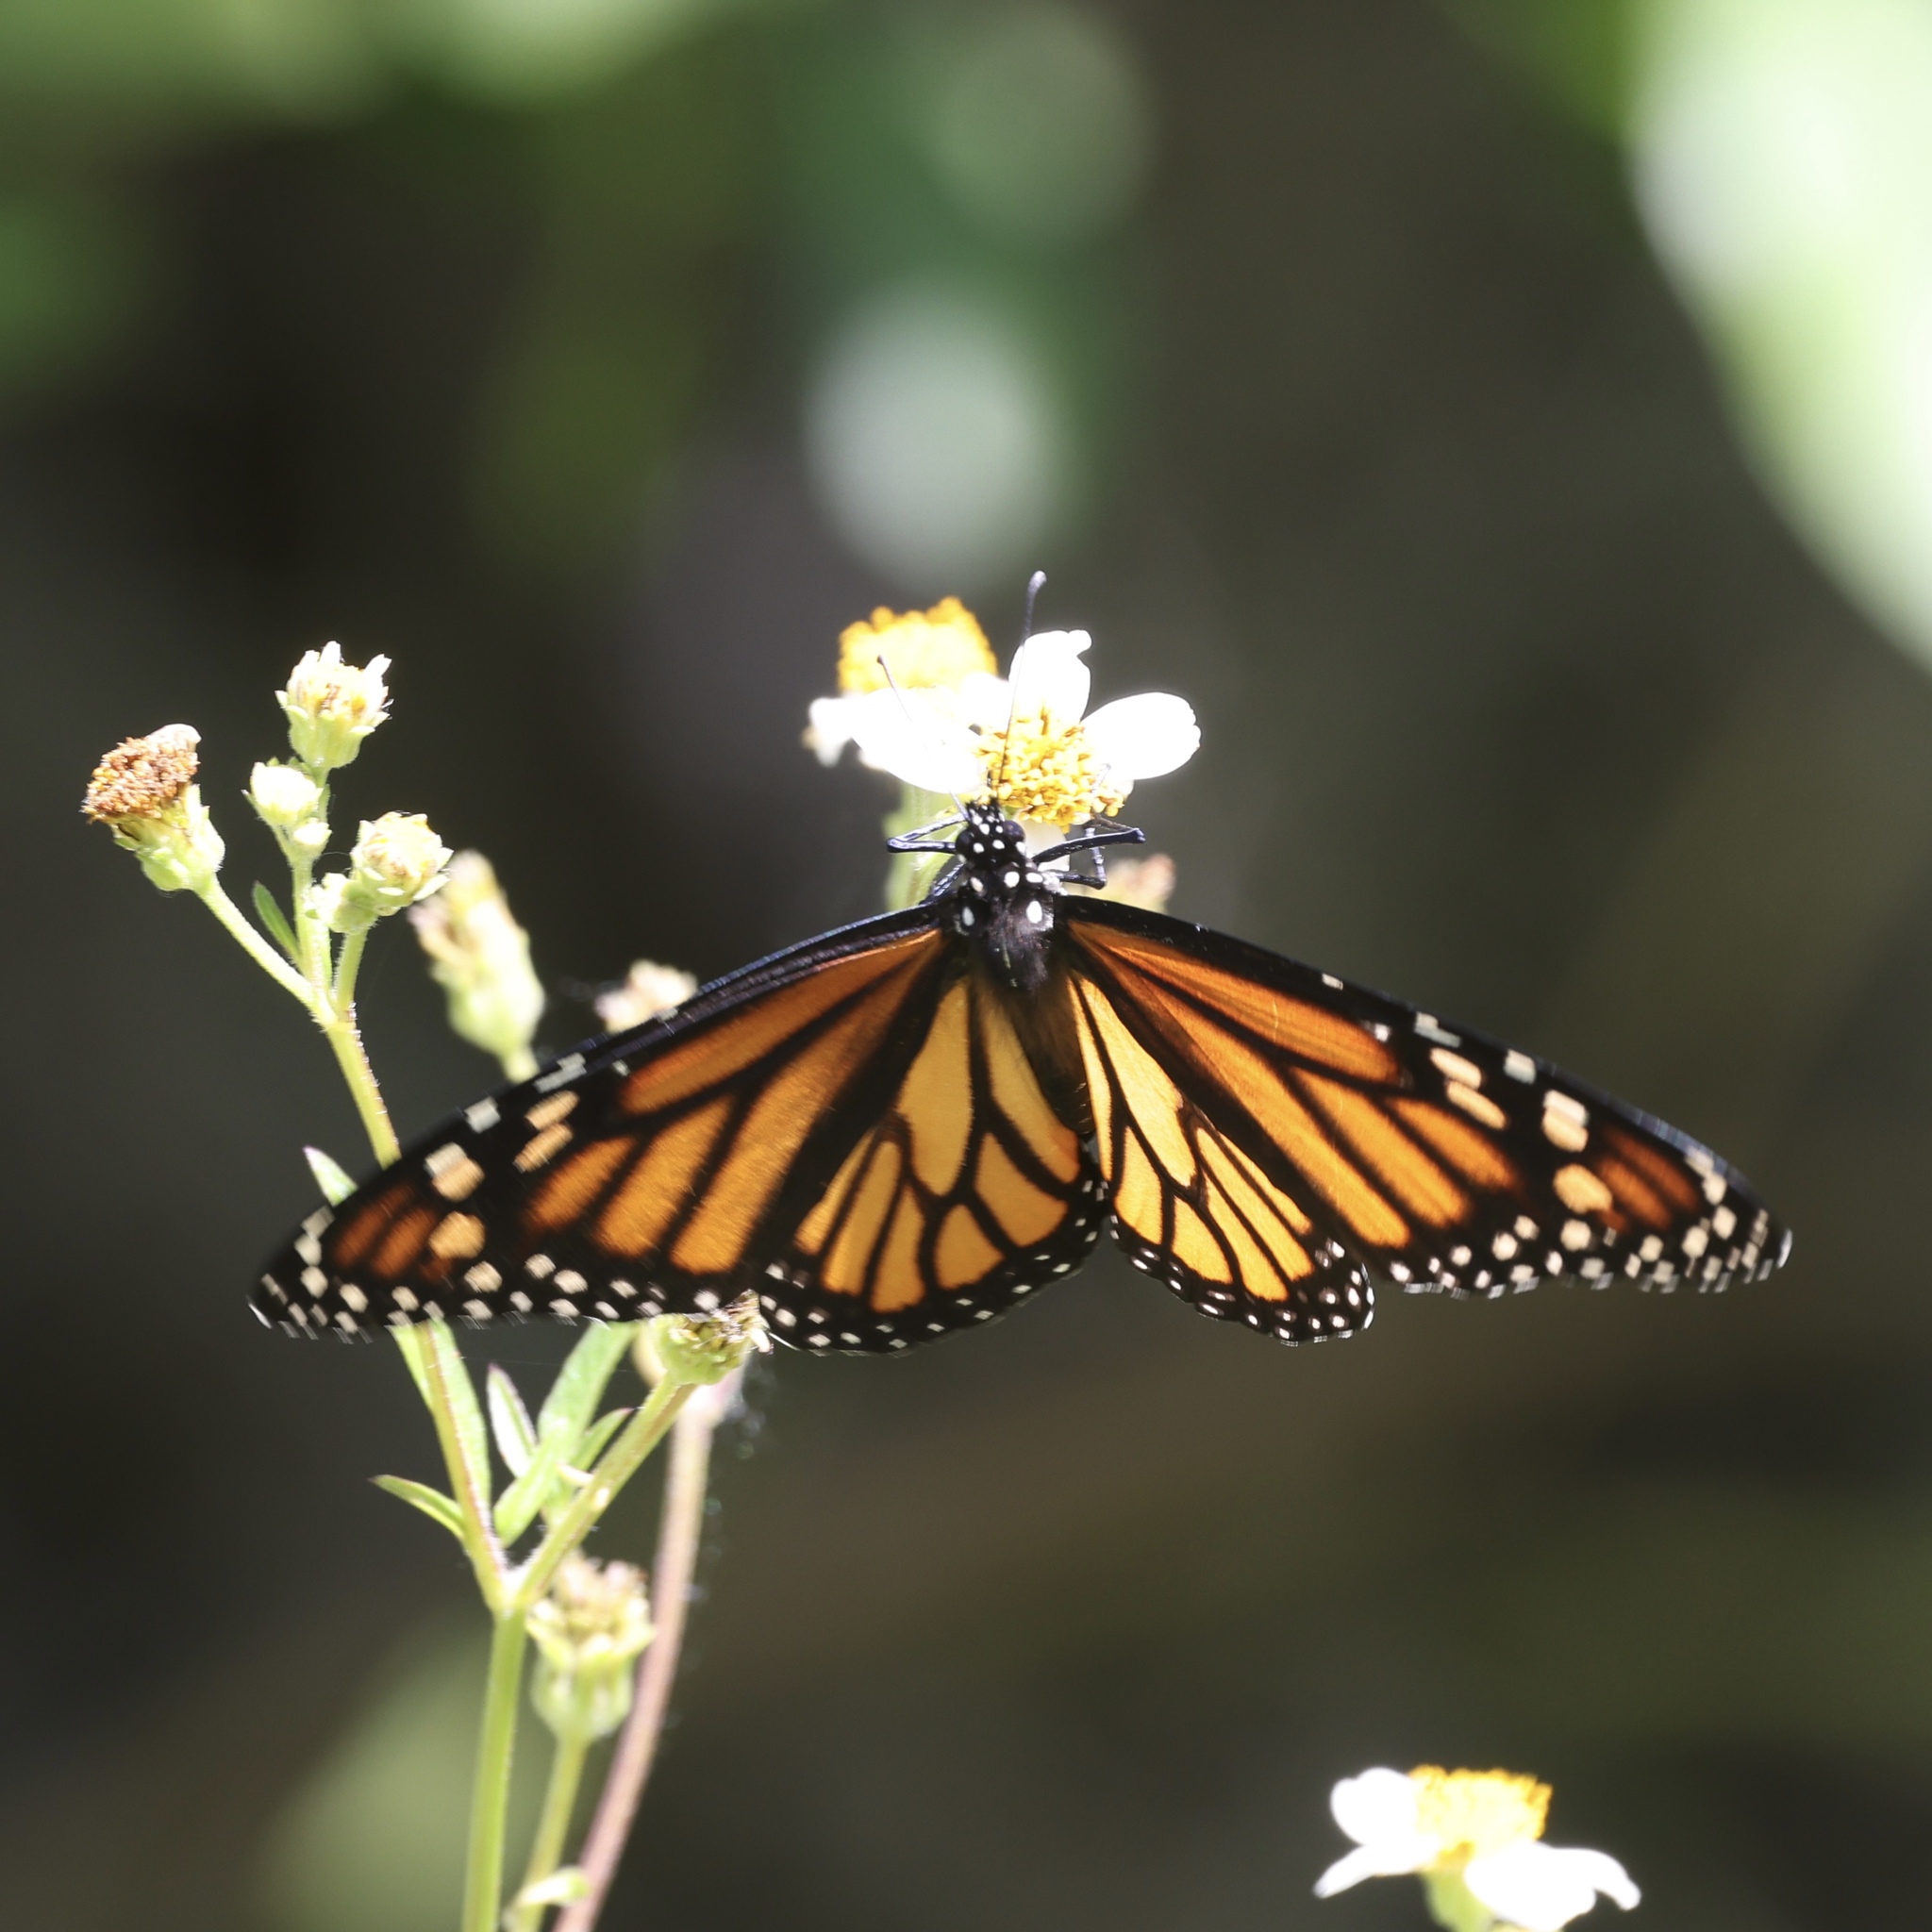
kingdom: Animalia
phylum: Arthropoda
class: Insecta
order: Lepidoptera
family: Nymphalidae
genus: Danaus
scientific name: Danaus plexippus
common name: Monarch
